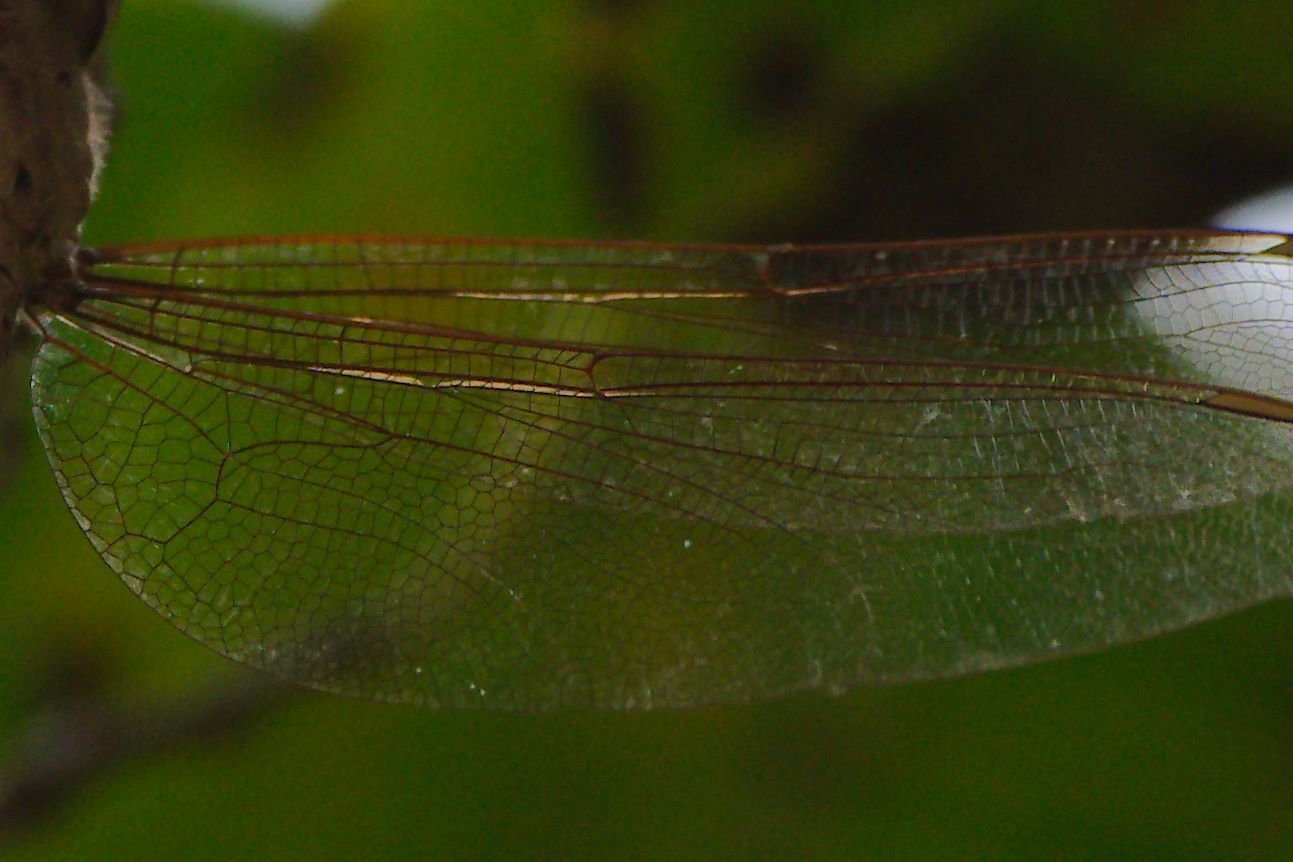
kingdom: Animalia
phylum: Arthropoda
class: Insecta
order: Odonata
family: Aeshnidae
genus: Gynacantha
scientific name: Gynacantha nervosa
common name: Twilight darner
